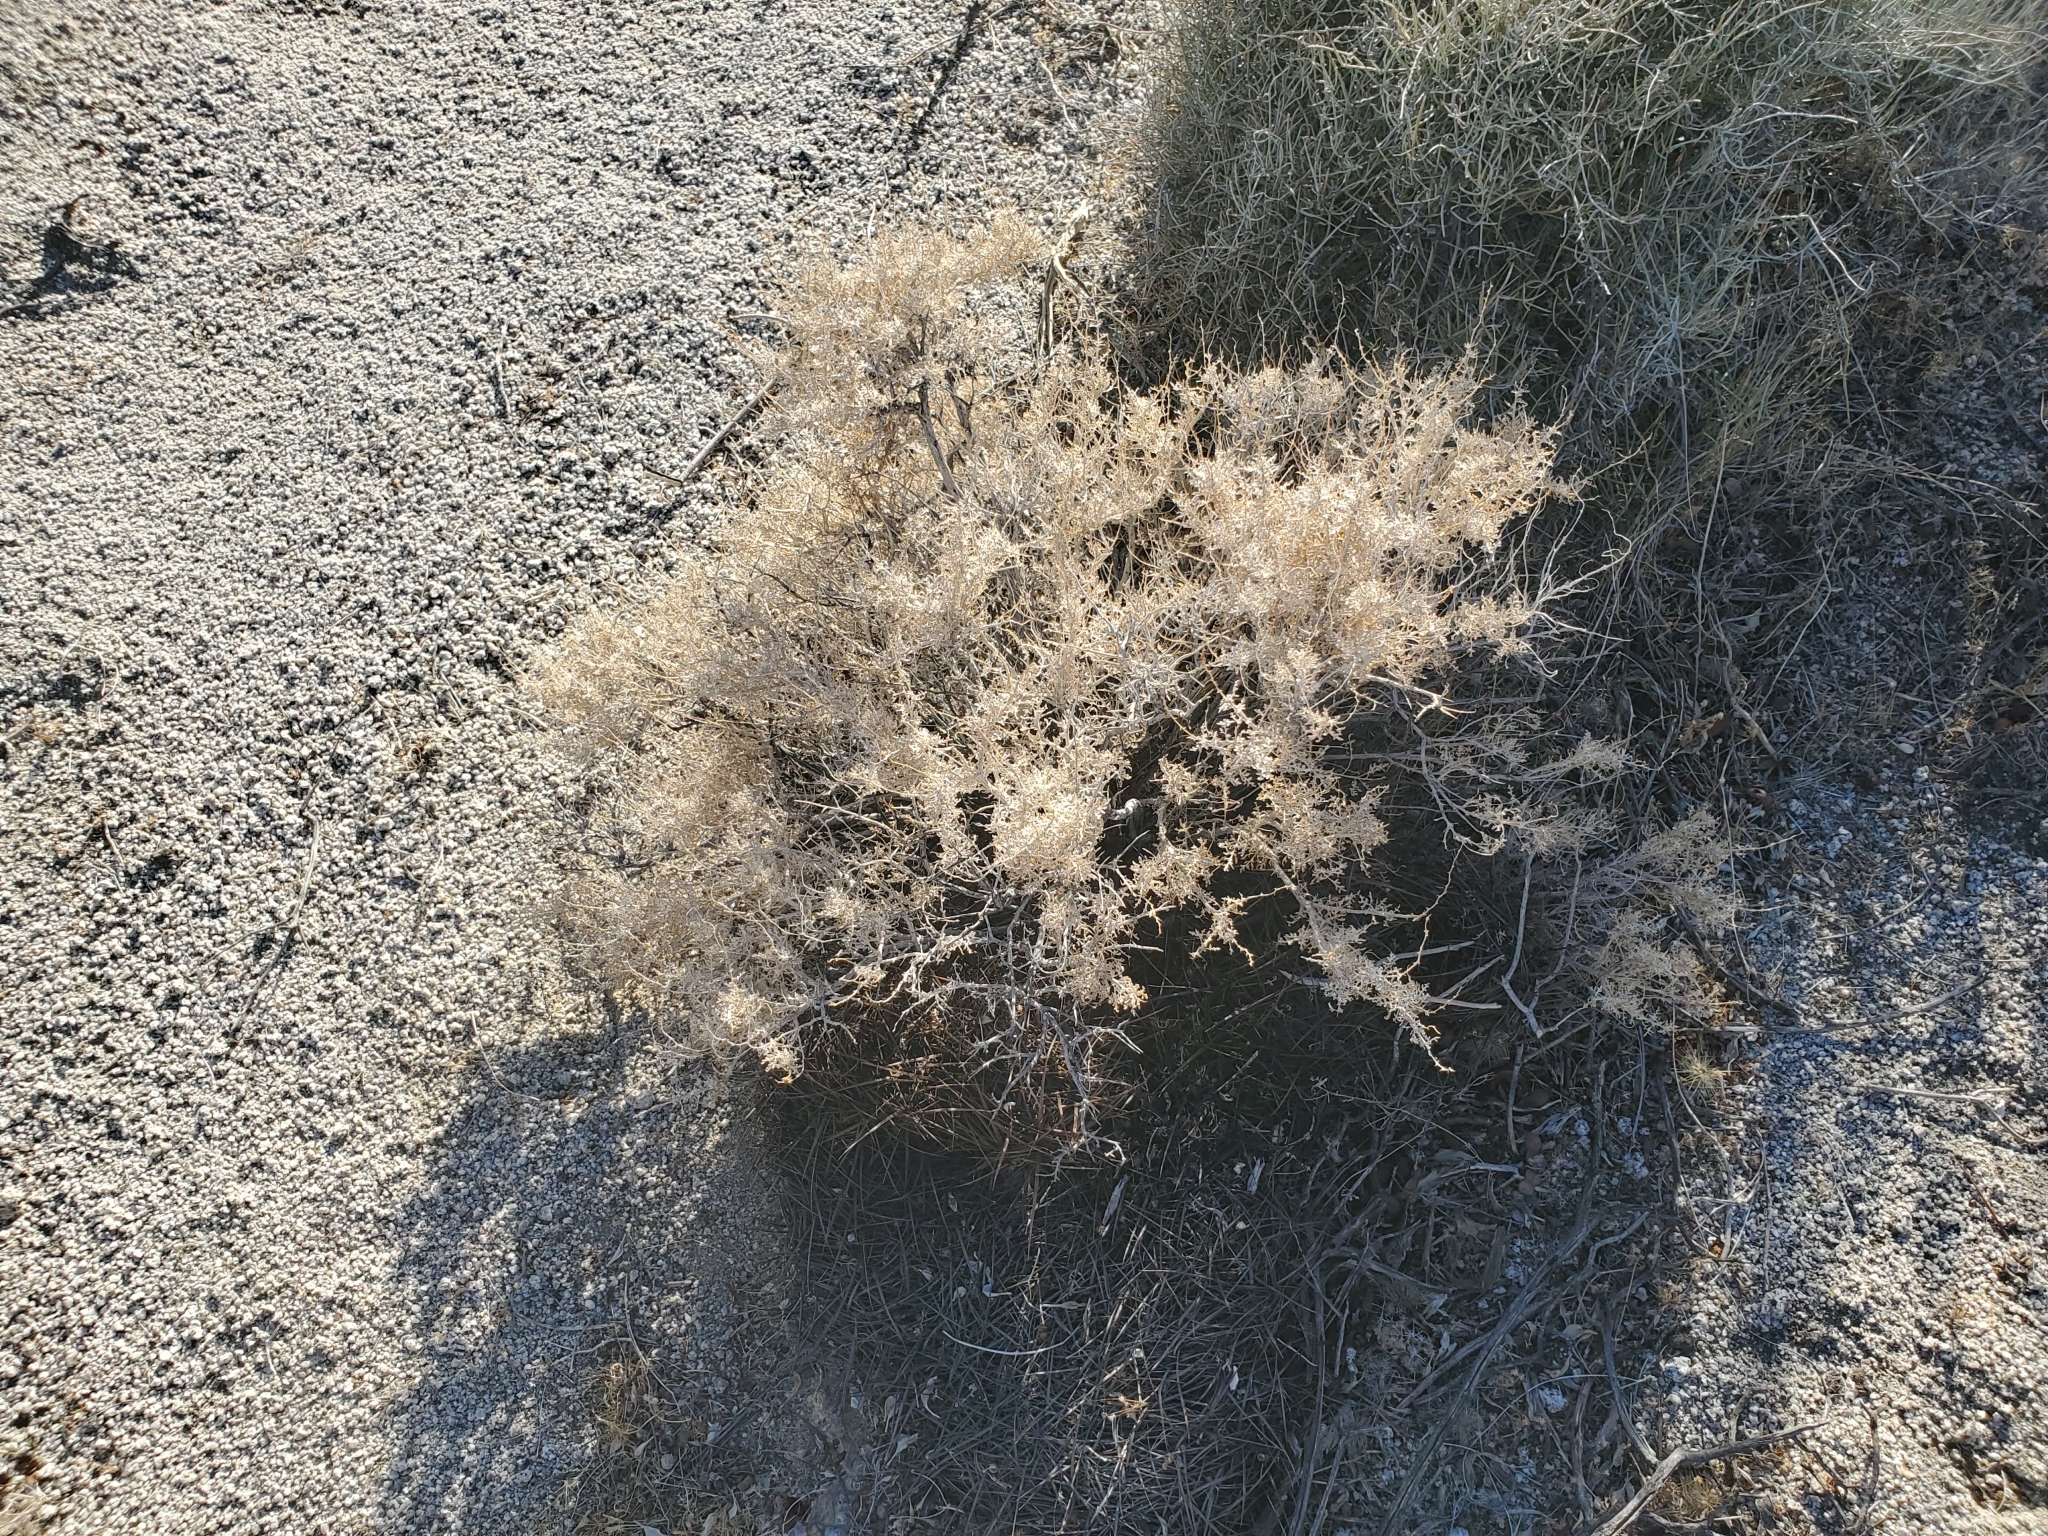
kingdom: Plantae
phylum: Tracheophyta
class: Magnoliopsida
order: Asterales
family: Asteraceae
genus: Ambrosia
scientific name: Ambrosia dumosa
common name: Bur-sage
